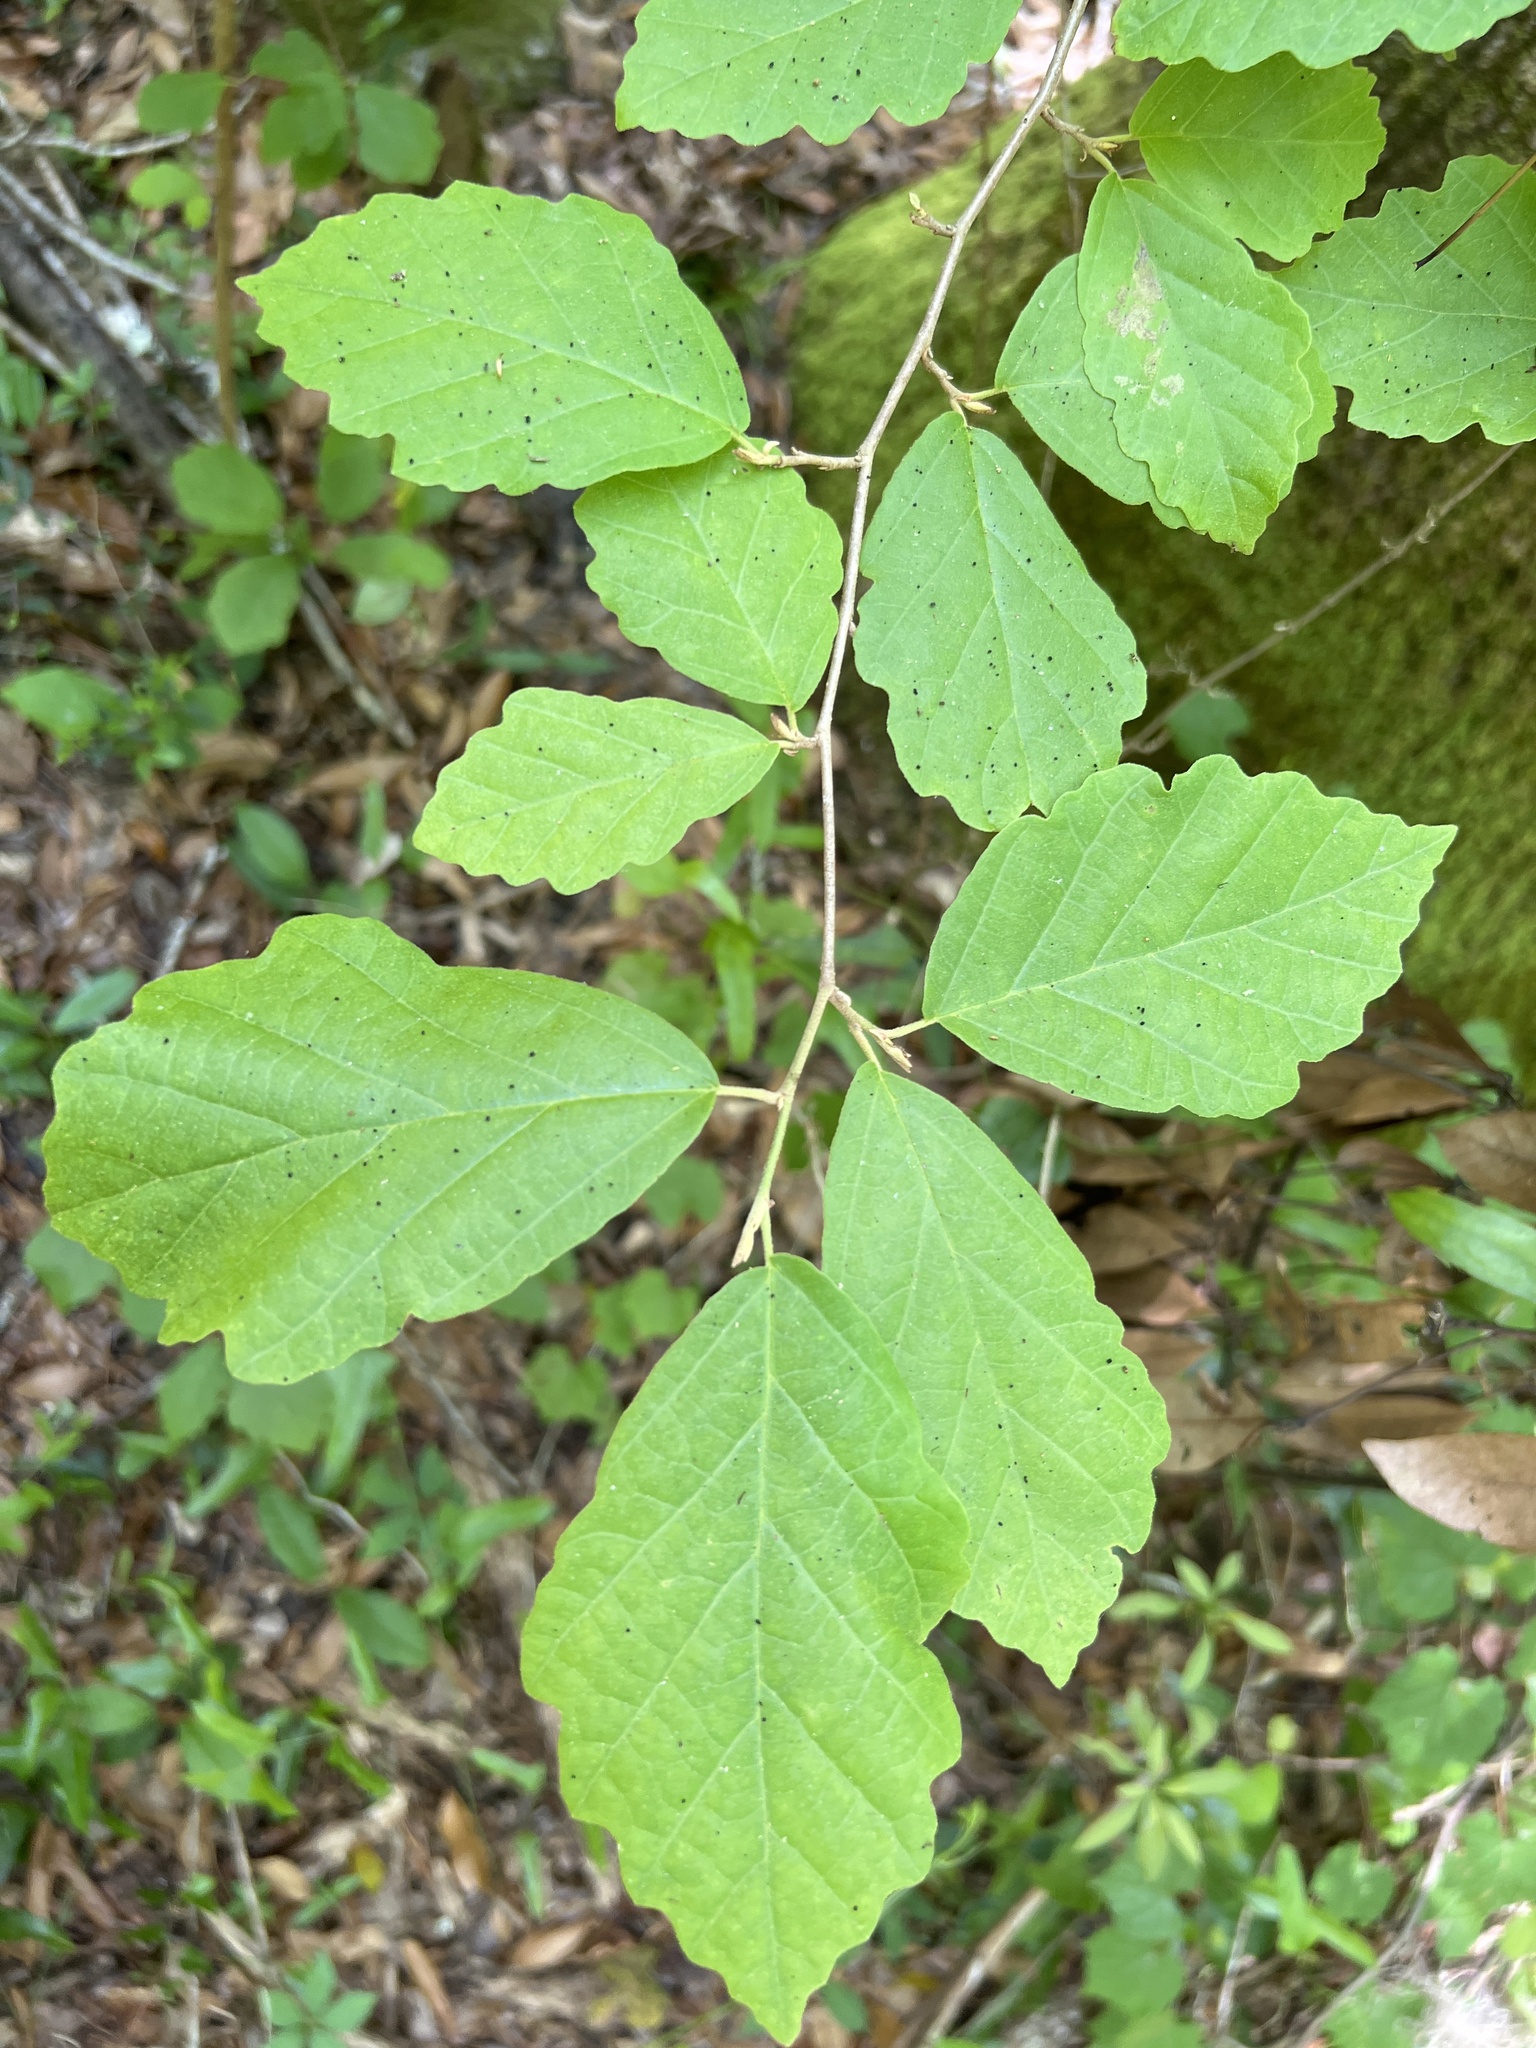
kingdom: Plantae
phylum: Tracheophyta
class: Magnoliopsida
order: Saxifragales
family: Hamamelidaceae
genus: Hamamelis
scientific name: Hamamelis virginiana
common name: Witch-hazel
